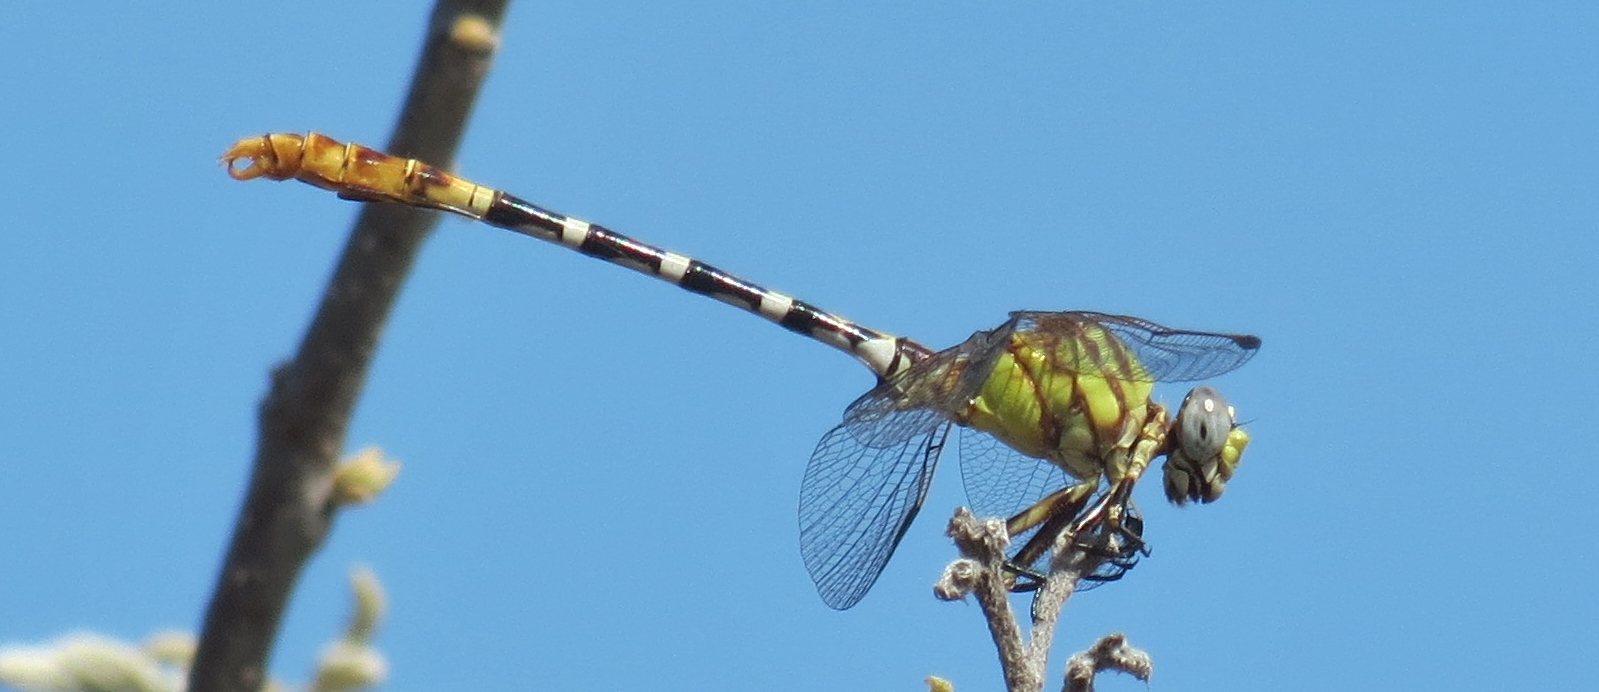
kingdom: Animalia
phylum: Arthropoda
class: Insecta
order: Odonata
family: Gomphidae
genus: Erpetogomphus
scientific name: Erpetogomphus designatus
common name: Eastern ringtail
